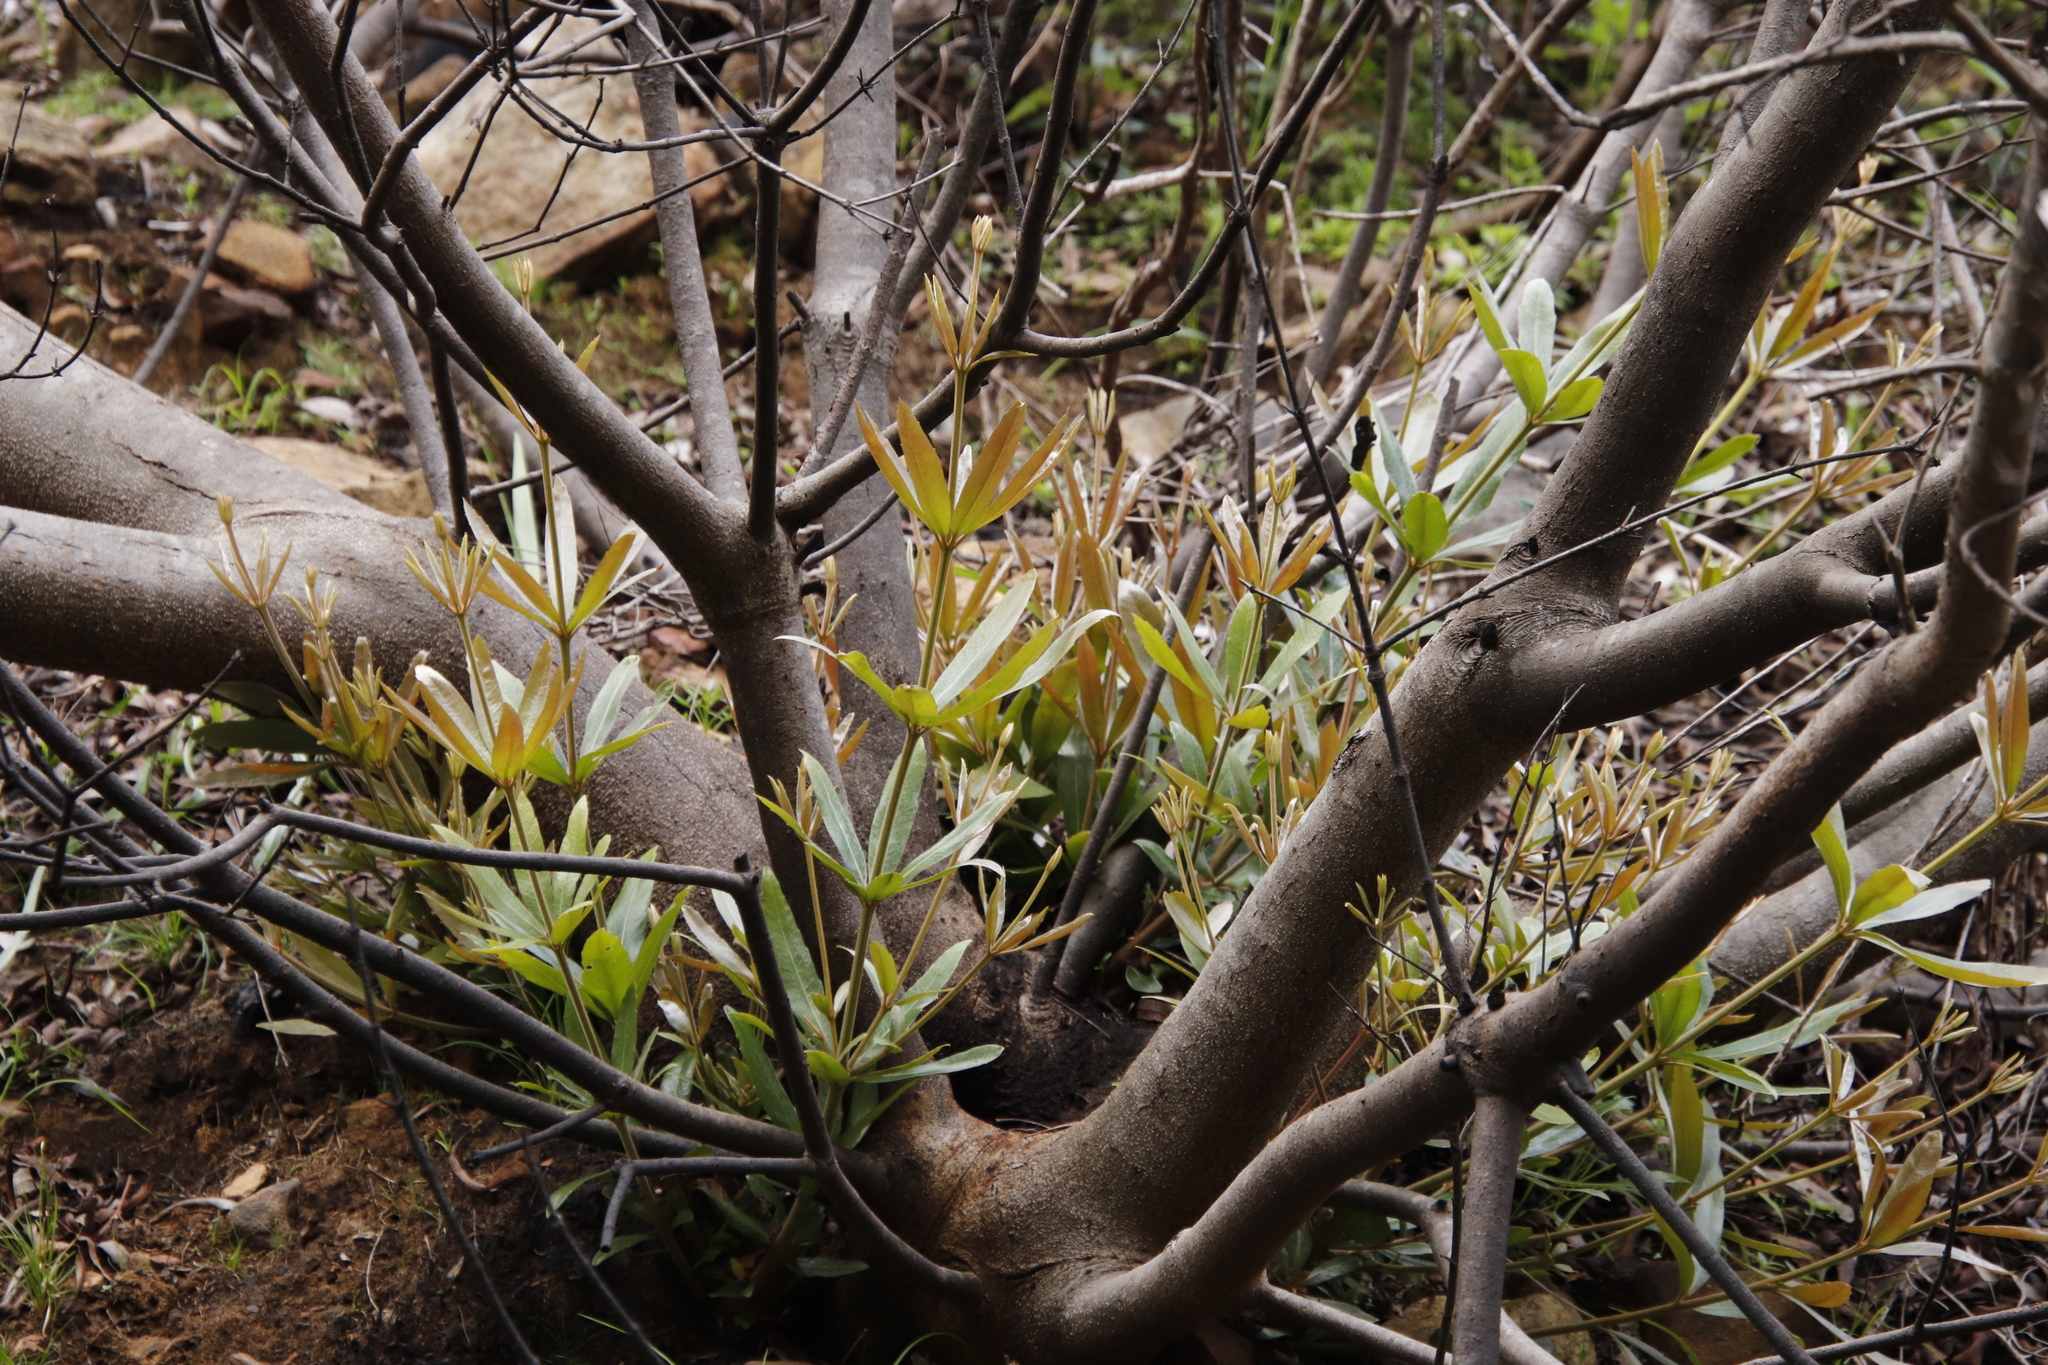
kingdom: Plantae
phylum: Tracheophyta
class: Magnoliopsida
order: Proteales
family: Proteaceae
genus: Brabejum
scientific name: Brabejum stellatifolium
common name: Wild almond
